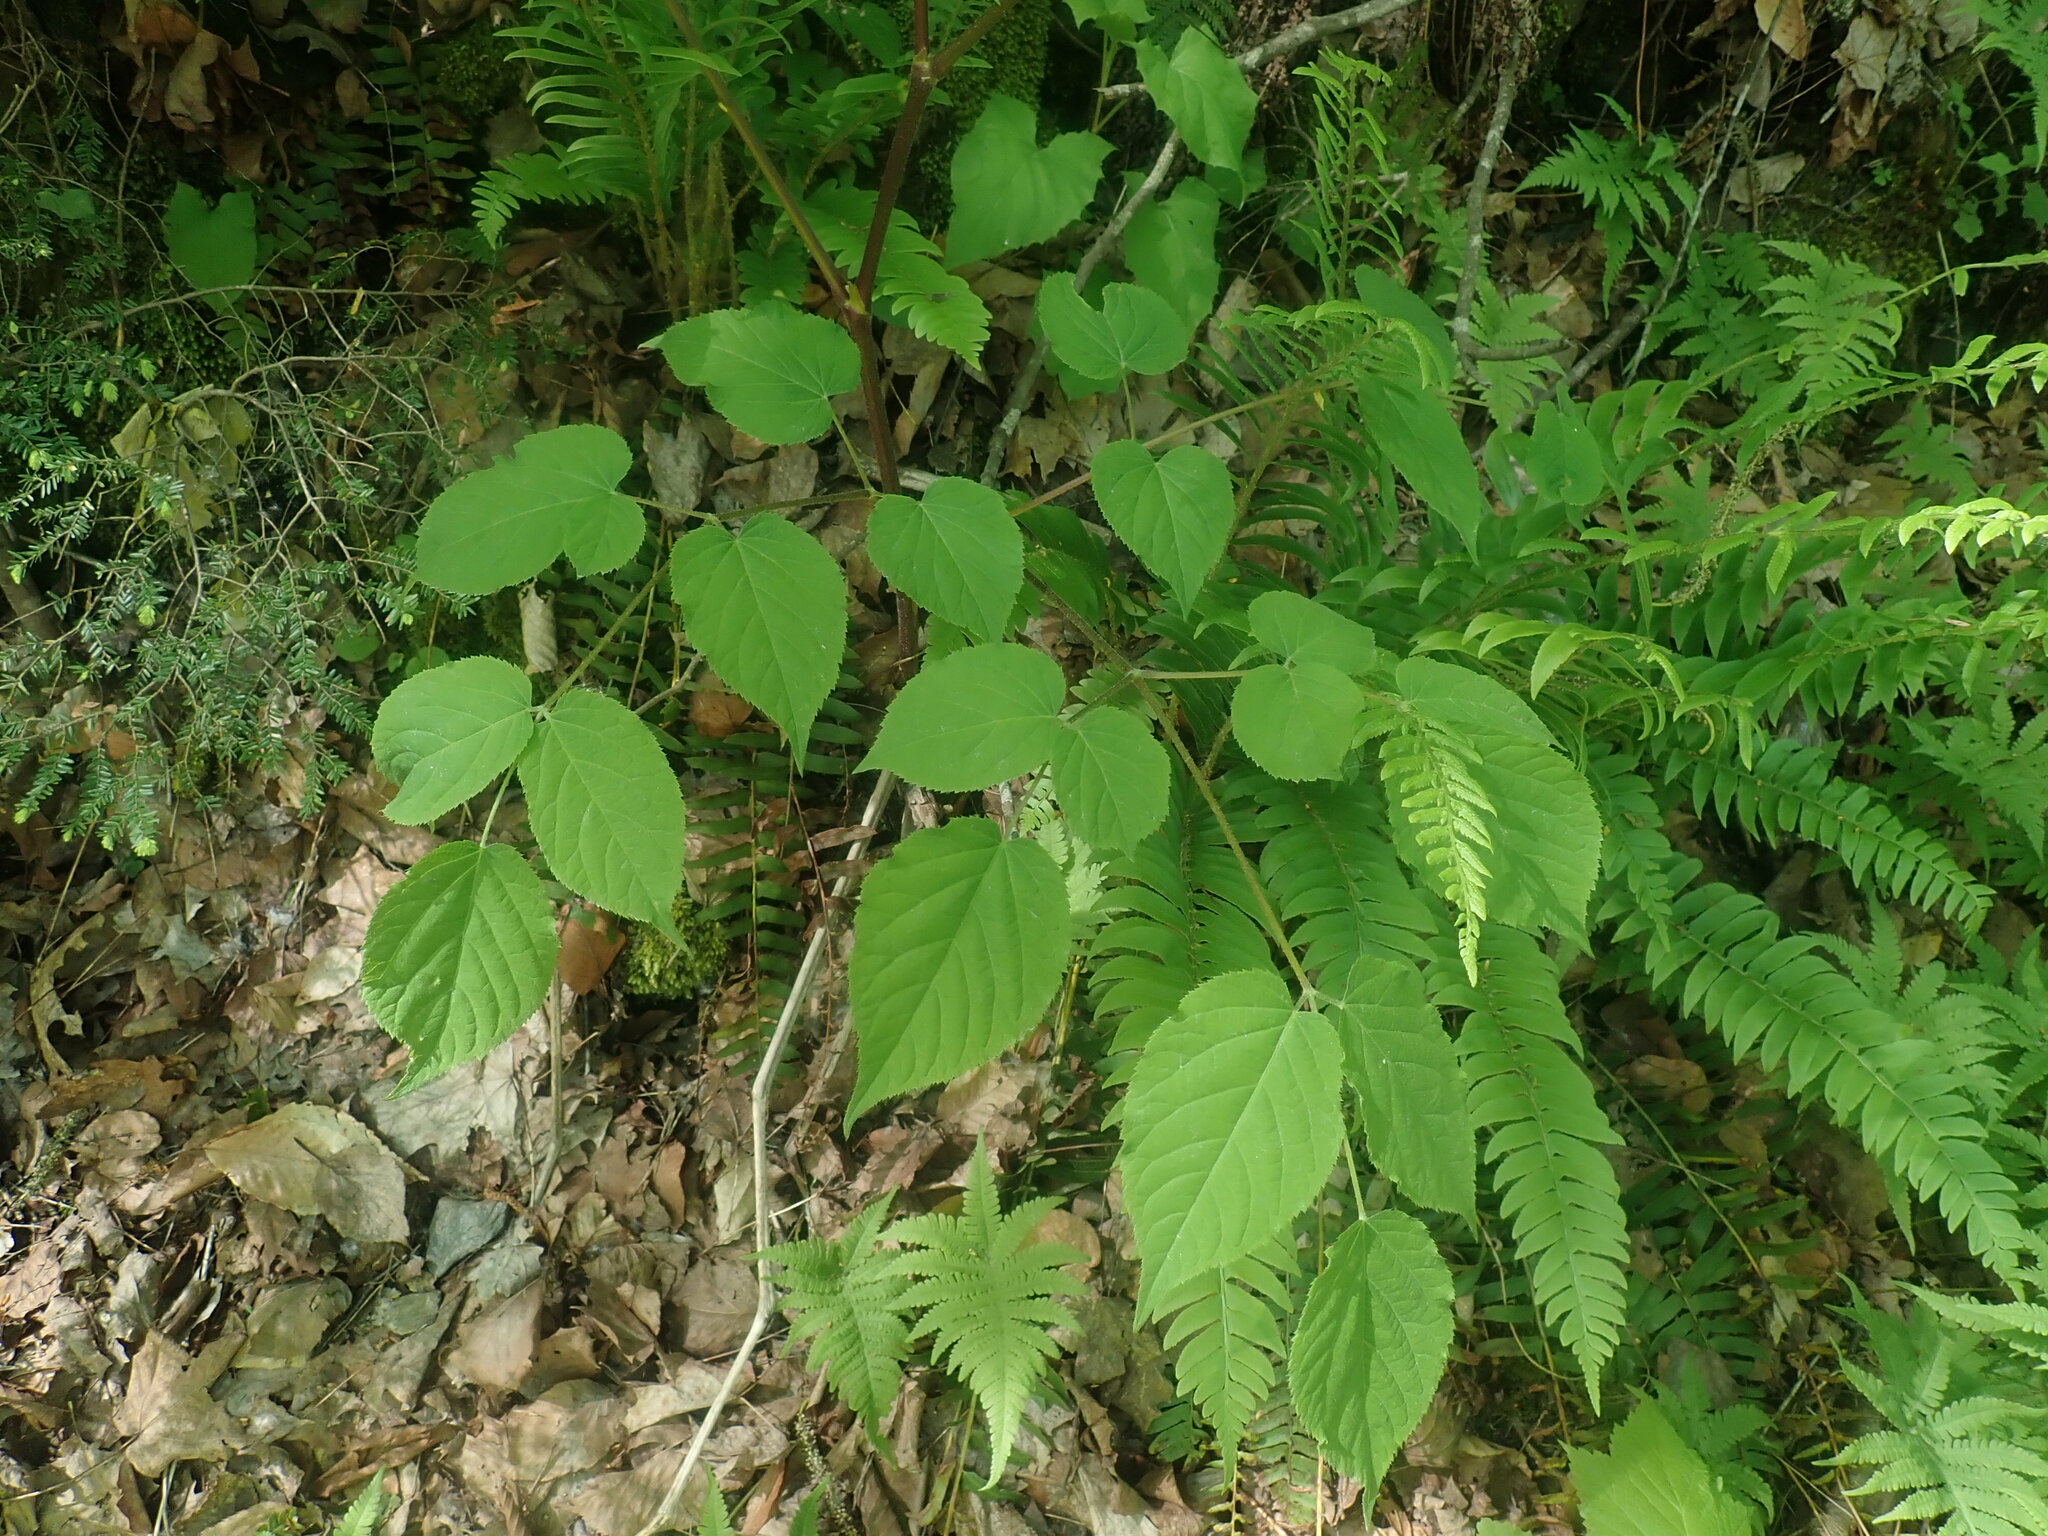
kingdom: Plantae
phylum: Tracheophyta
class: Magnoliopsida
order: Apiales
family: Araliaceae
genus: Aralia
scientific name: Aralia racemosa
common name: American-spikenard
